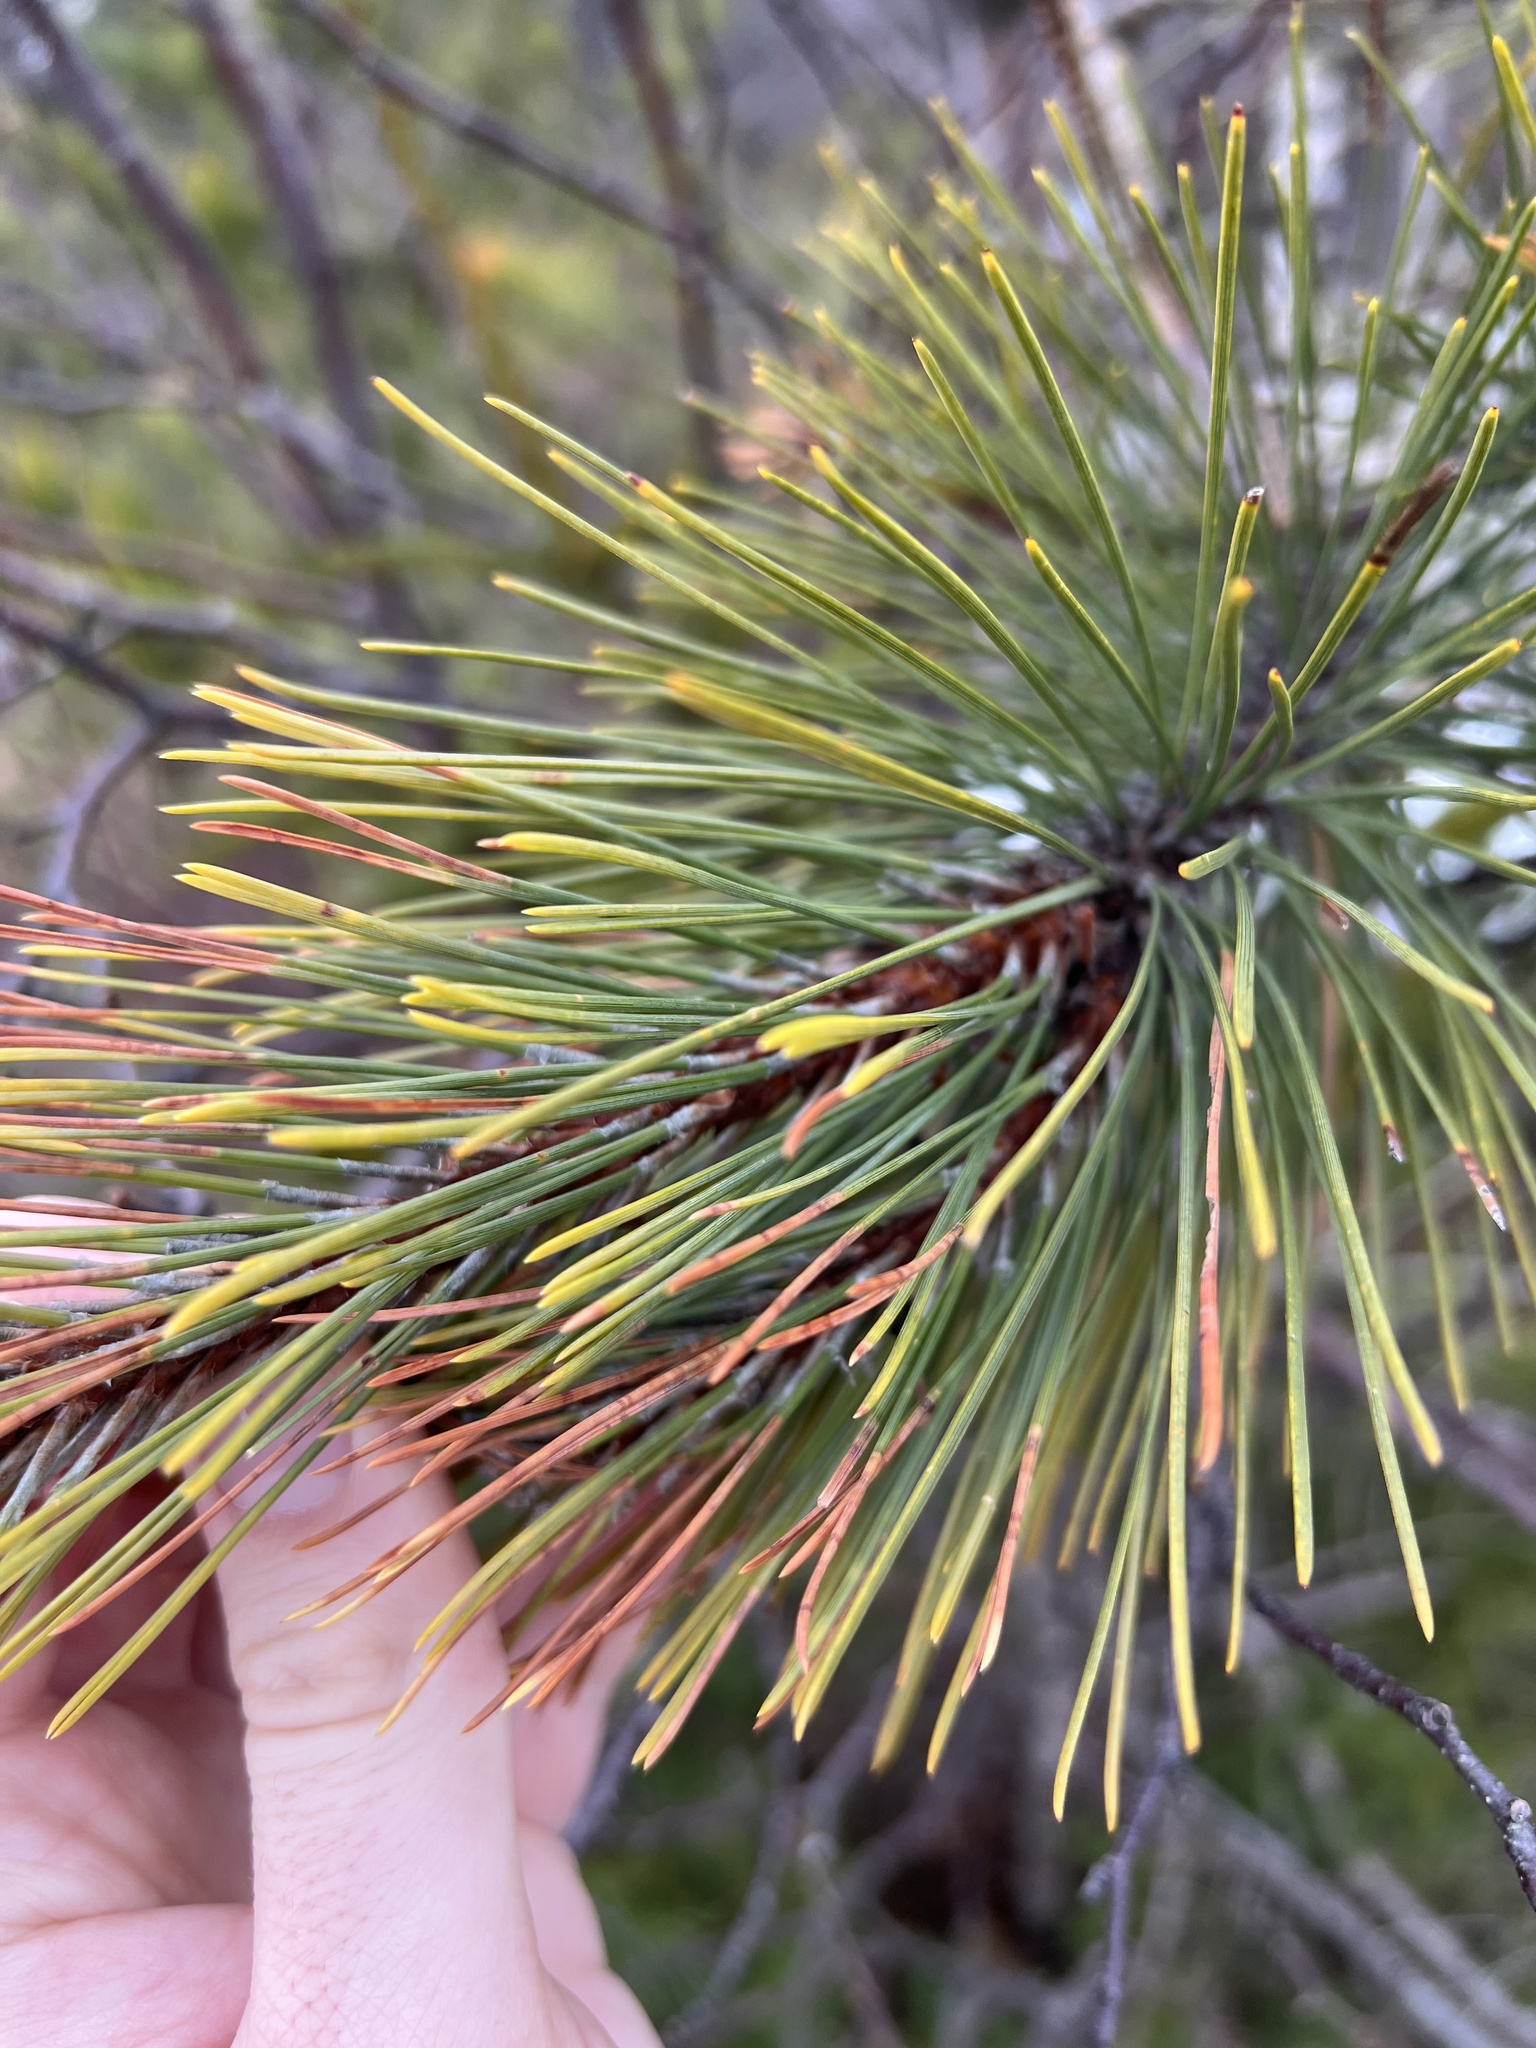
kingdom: Plantae
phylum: Tracheophyta
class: Pinopsida
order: Pinales
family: Pinaceae
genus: Pinus
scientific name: Pinus strobus
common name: Weymouth pine
